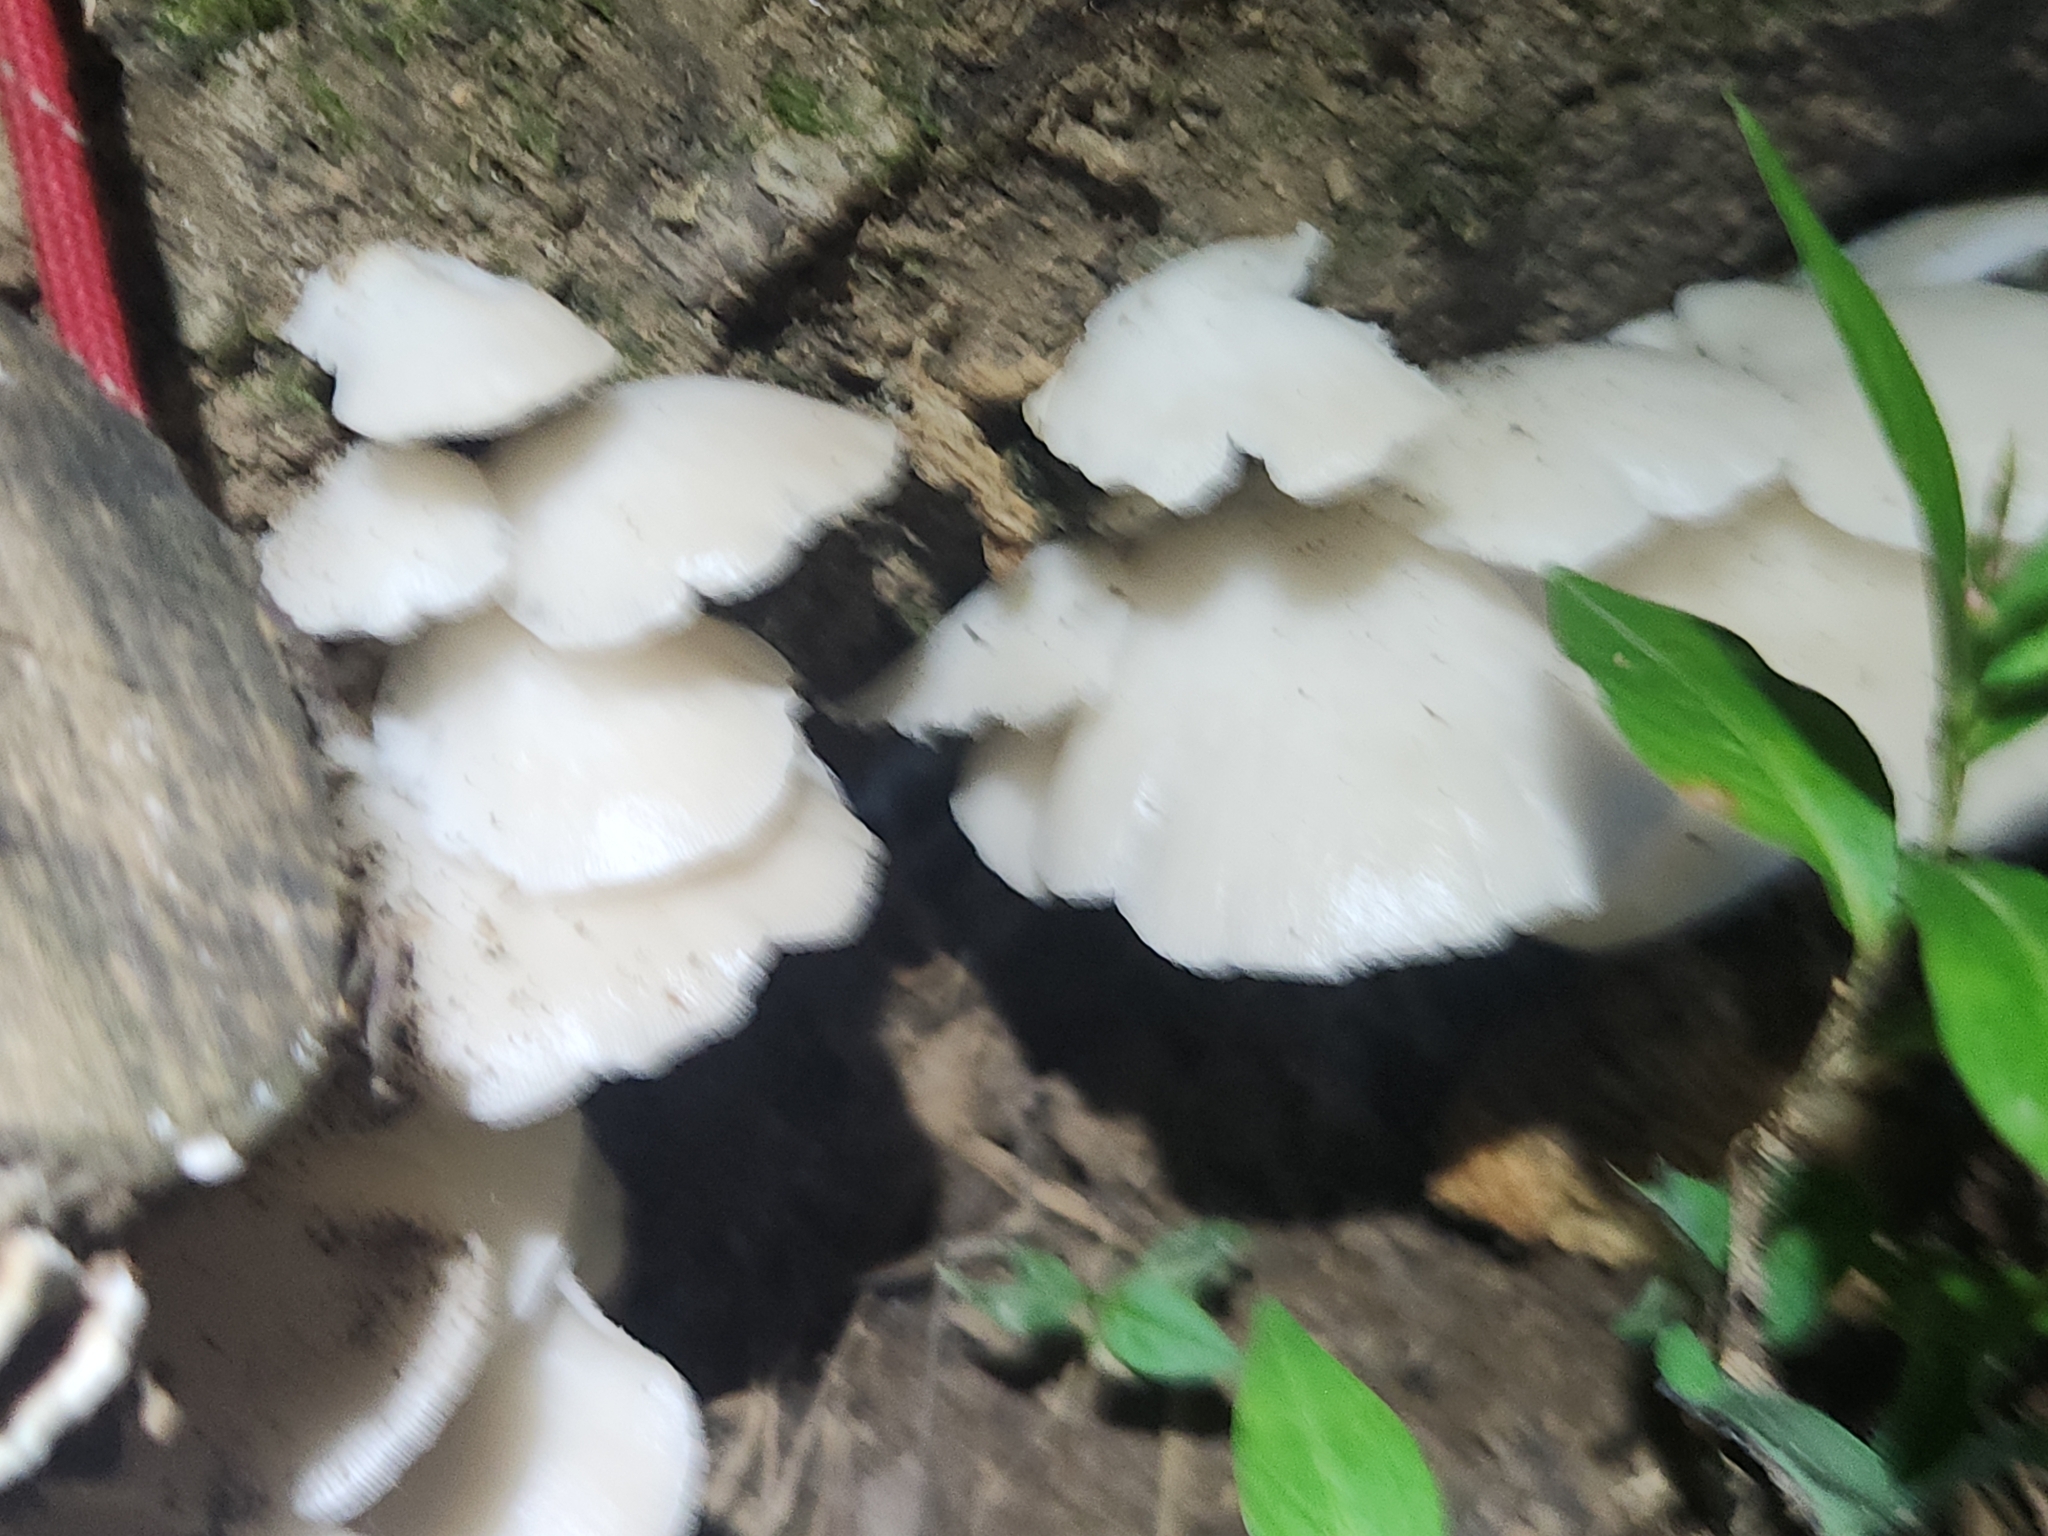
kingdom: Fungi
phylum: Basidiomycota
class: Agaricomycetes
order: Agaricales
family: Pleurotaceae
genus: Pleurotus
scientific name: Pleurotus pulmonarius
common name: Pale oyster
